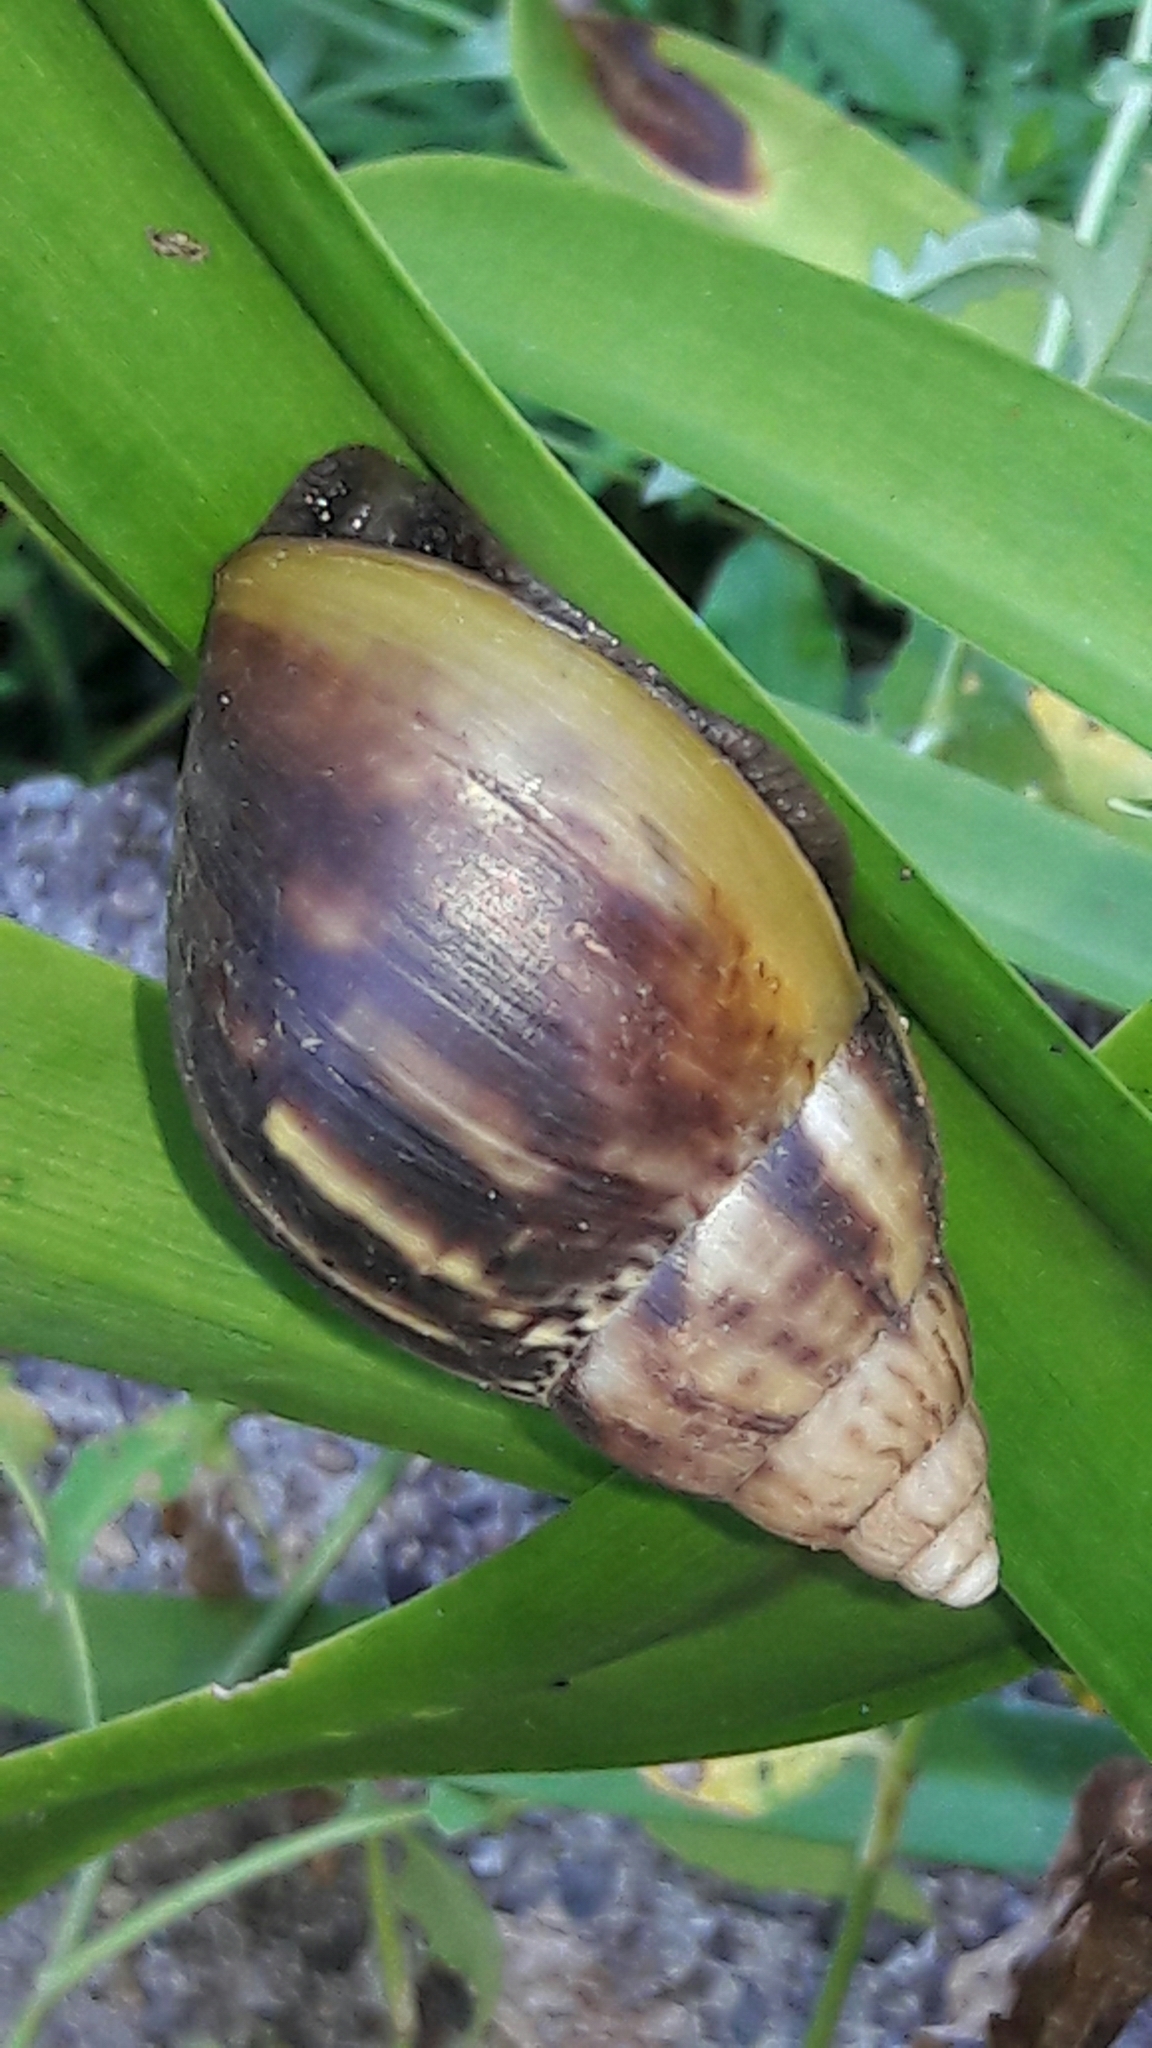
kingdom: Animalia
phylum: Mollusca
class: Gastropoda
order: Stylommatophora
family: Achatinidae
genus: Lissachatina
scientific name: Lissachatina fulica
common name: Giant african snail
